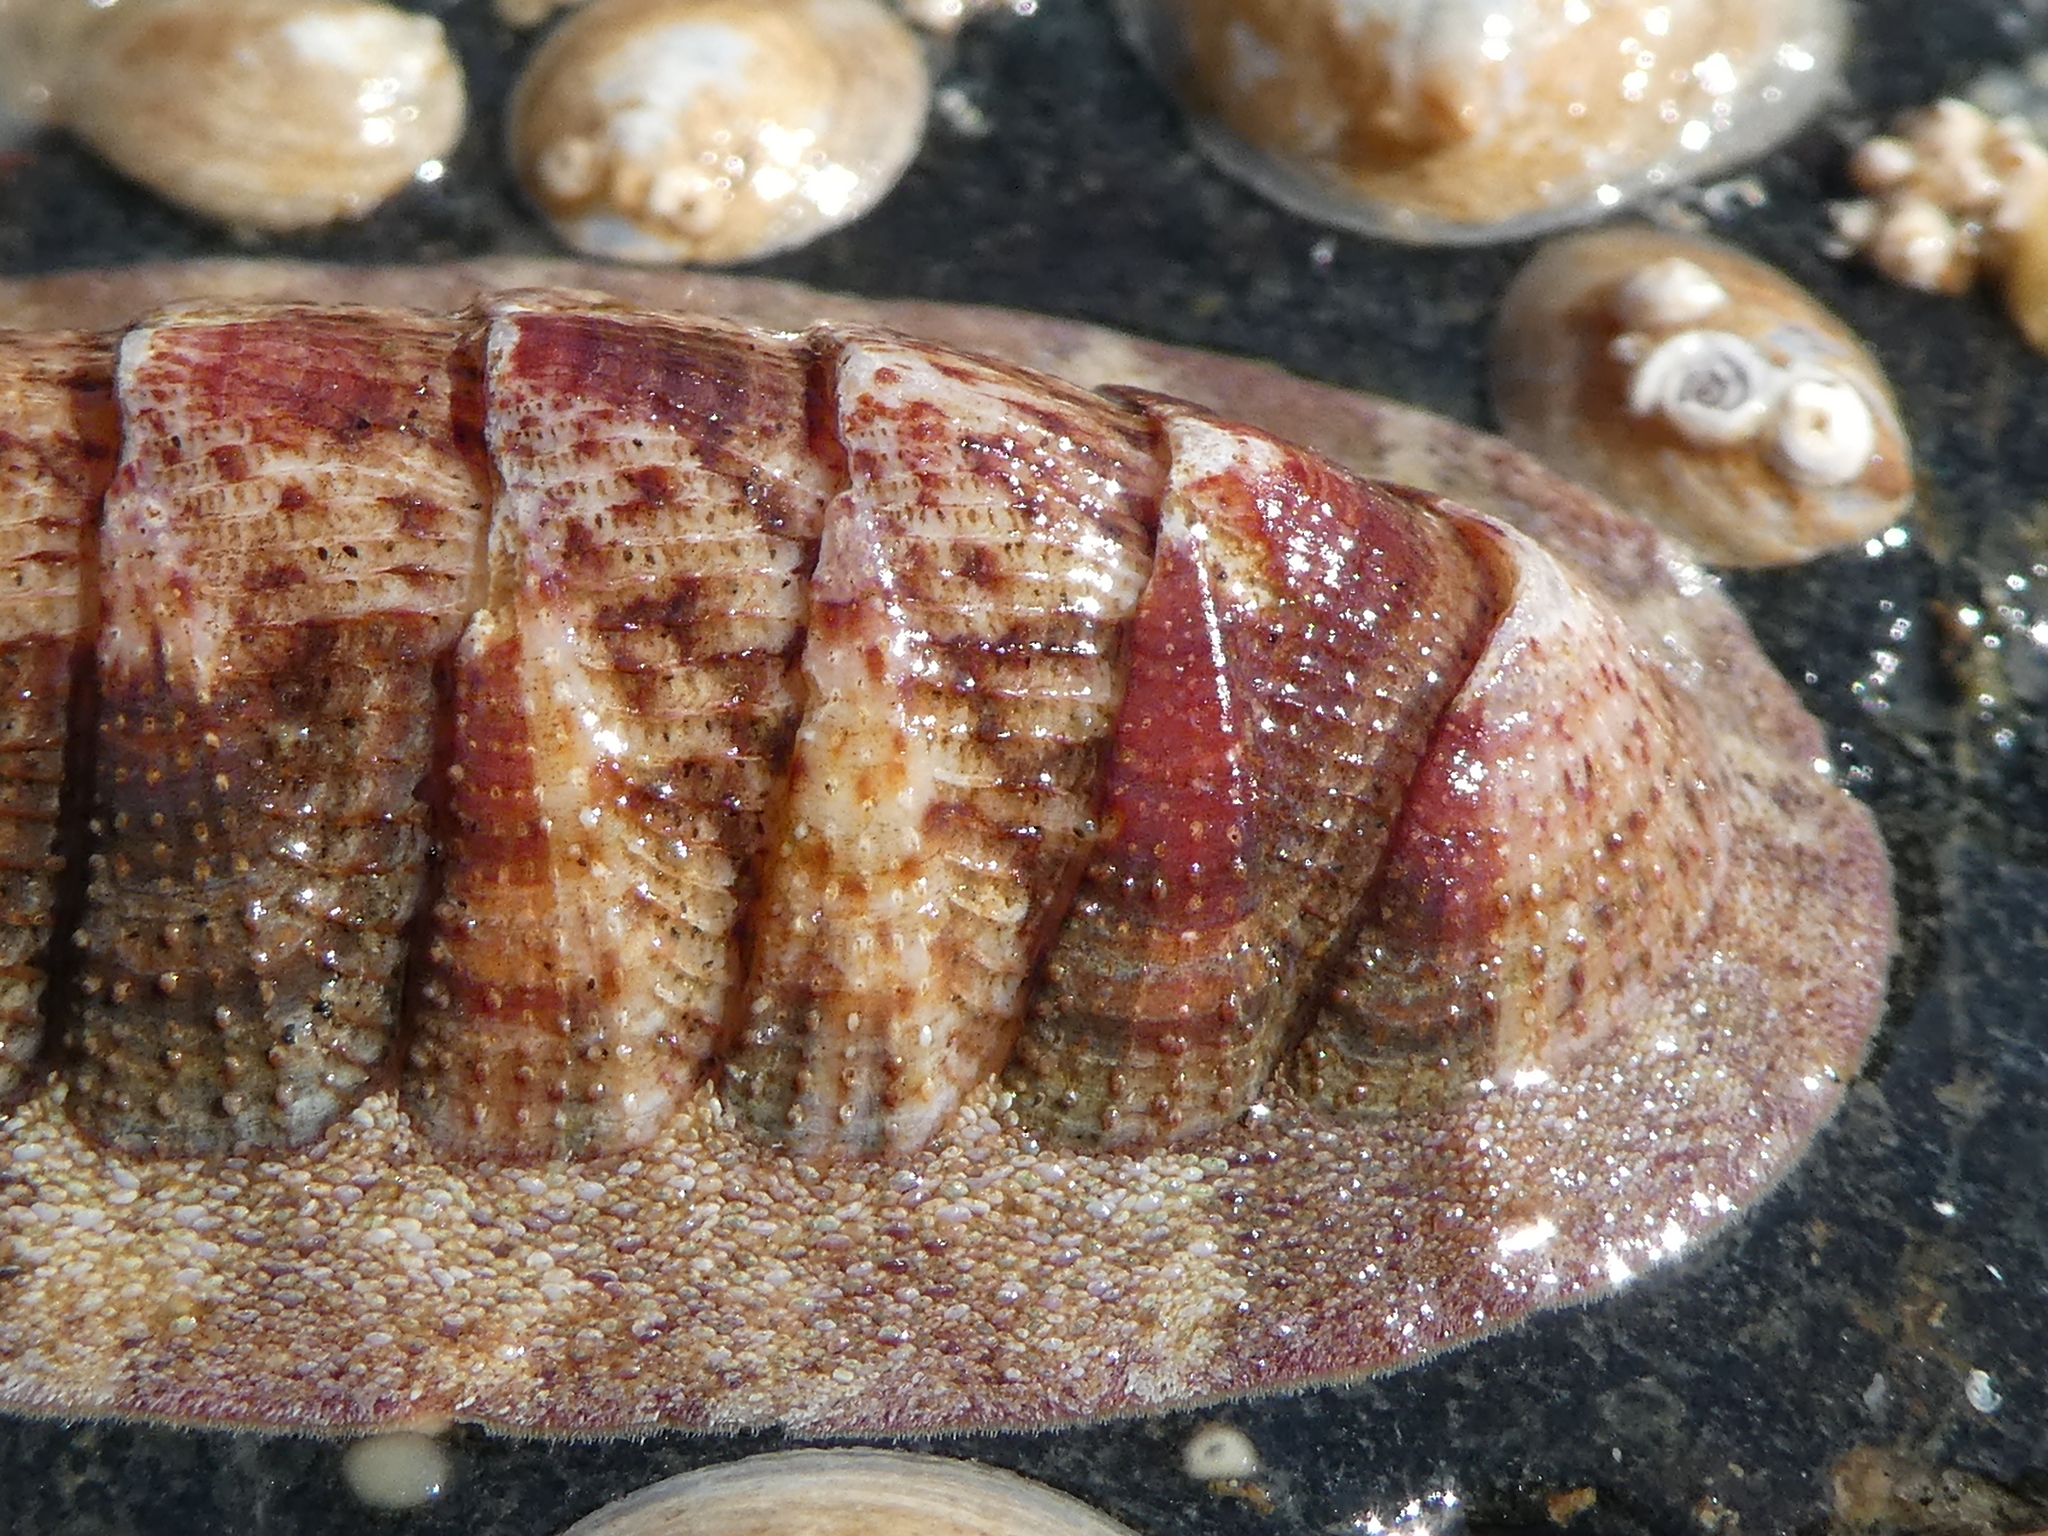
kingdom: Animalia
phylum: Mollusca
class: Polyplacophora
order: Chitonida
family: Ischnochitonidae
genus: Lepidozona
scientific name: Lepidozona mertensii
